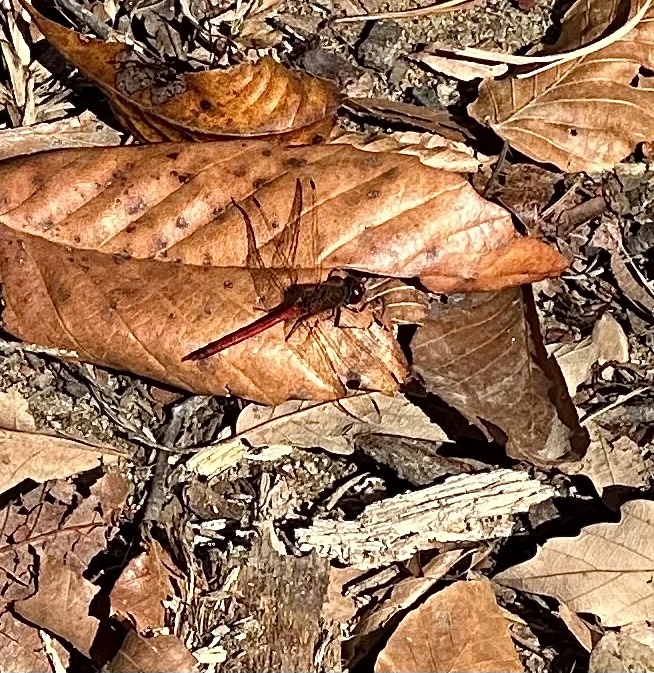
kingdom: Animalia
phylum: Arthropoda
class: Insecta
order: Odonata
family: Libellulidae
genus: Sympetrum
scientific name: Sympetrum vicinum
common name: Autumn meadowhawk
